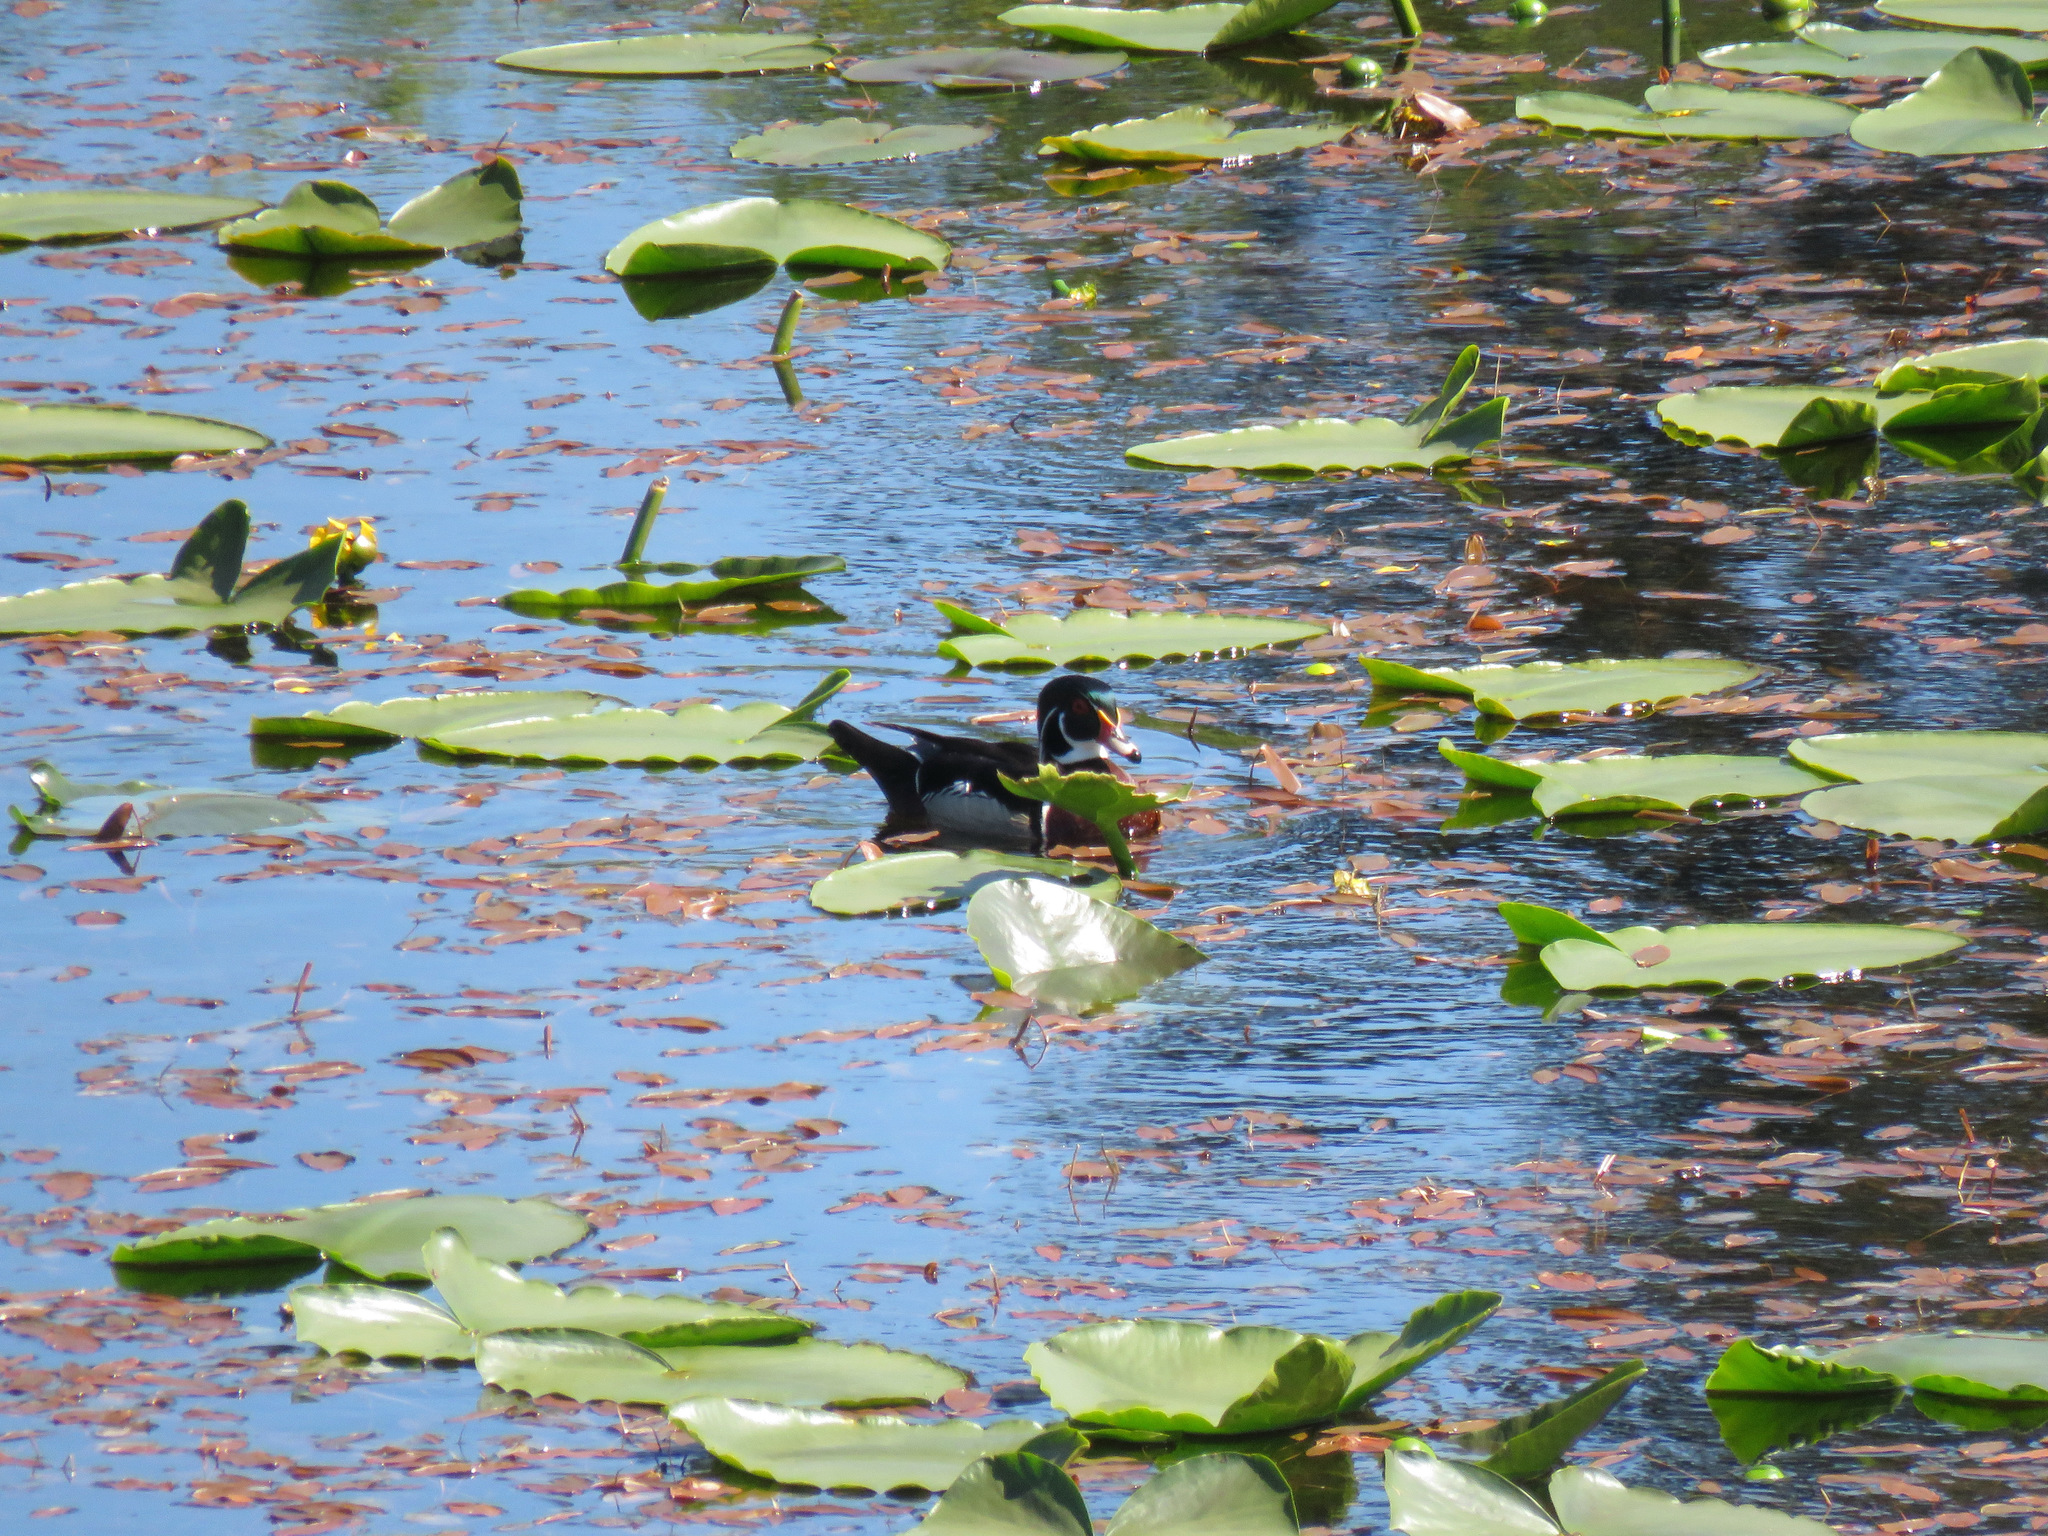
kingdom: Animalia
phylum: Chordata
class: Aves
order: Anseriformes
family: Anatidae
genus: Aix
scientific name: Aix sponsa
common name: Wood duck
